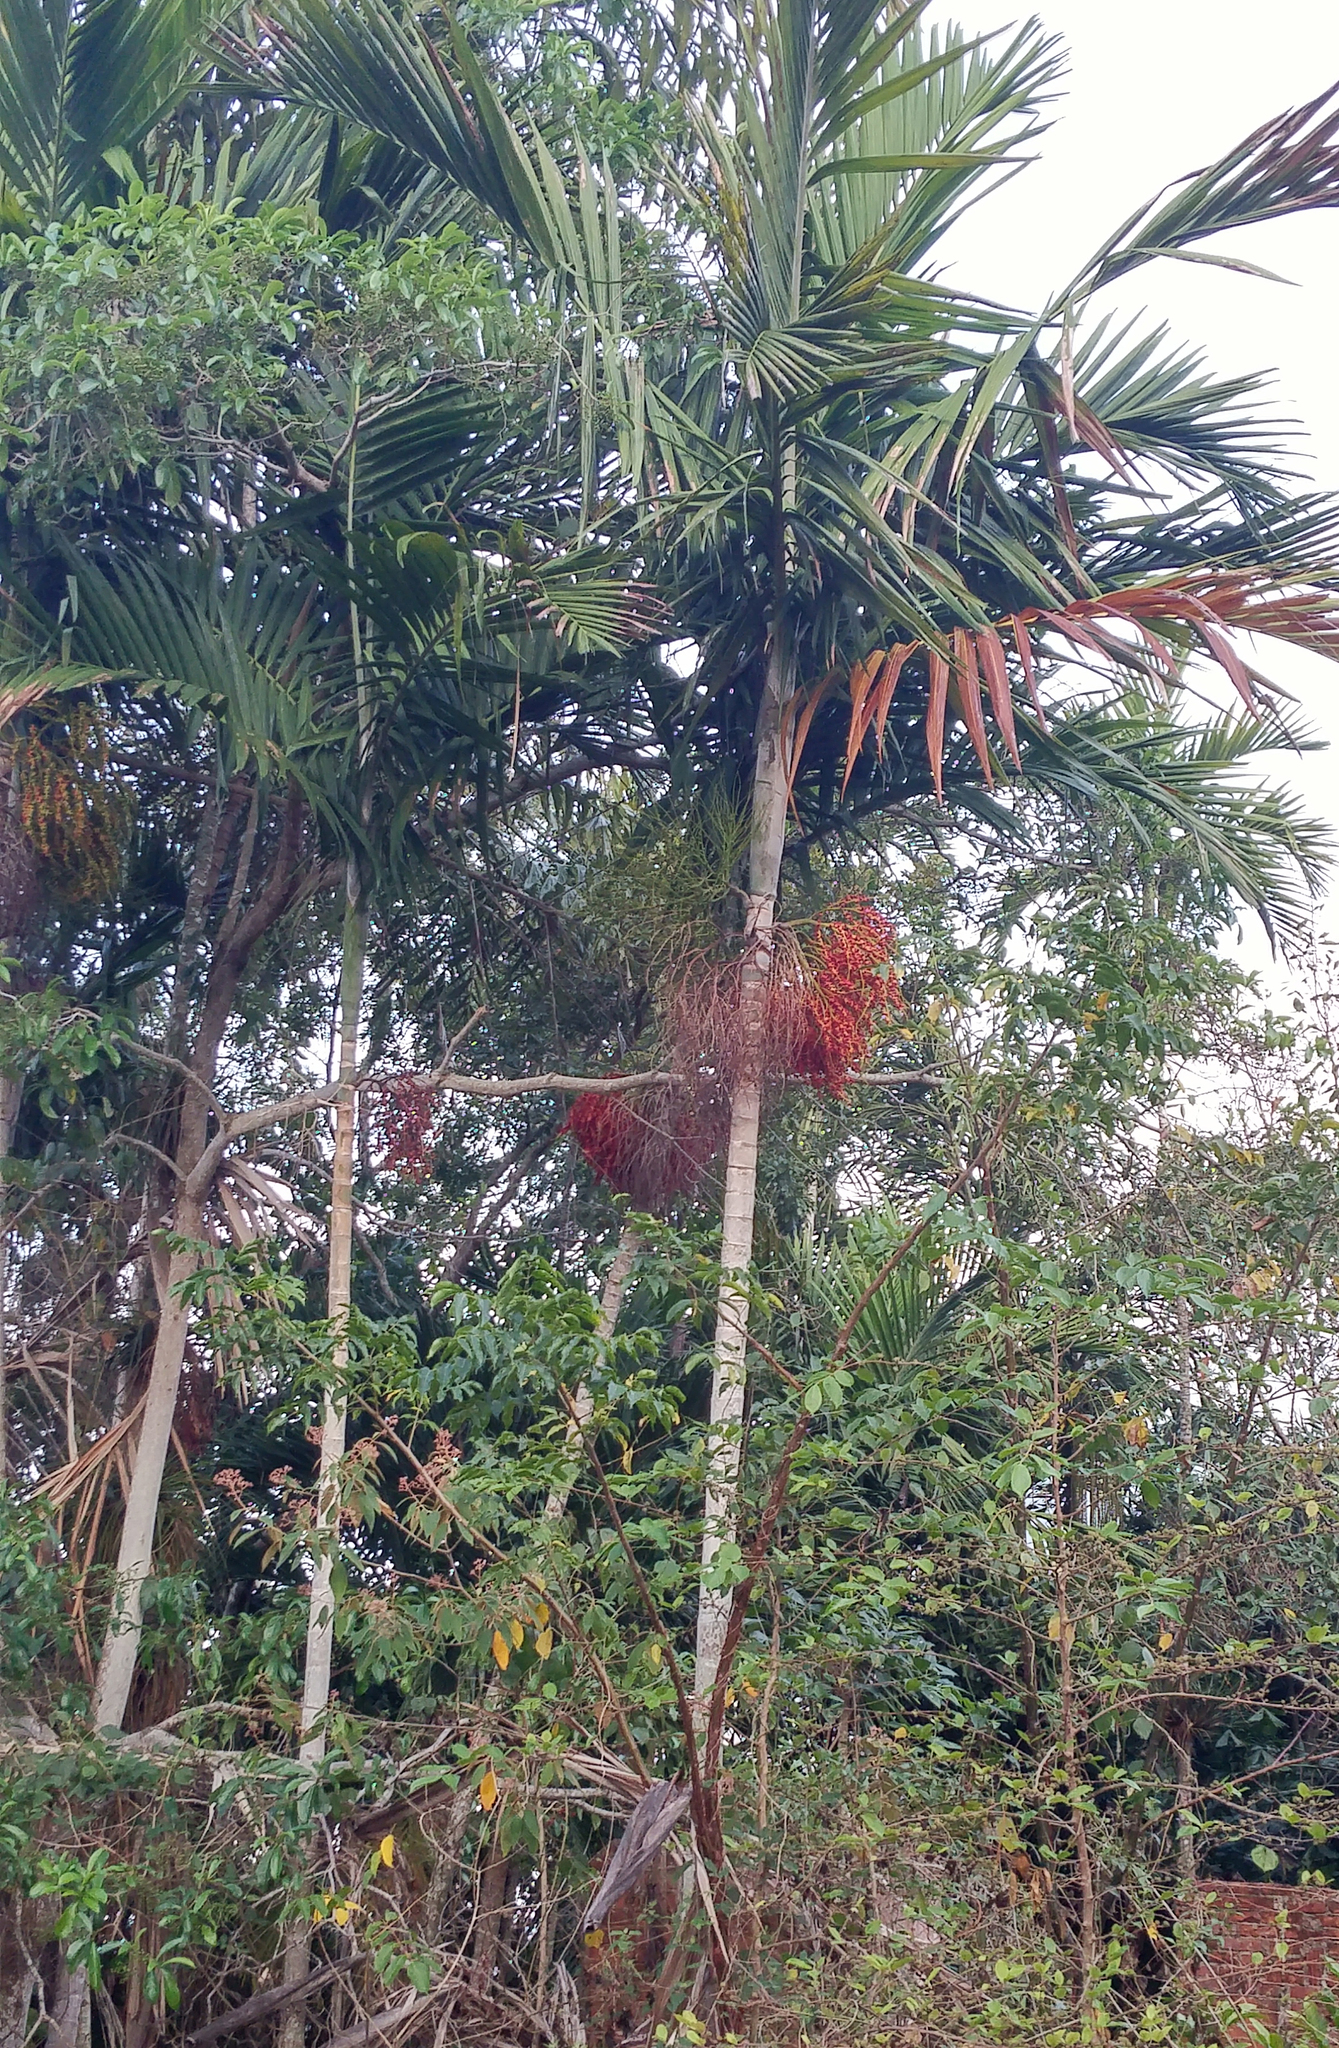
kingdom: Plantae
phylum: Tracheophyta
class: Liliopsida
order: Arecales
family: Arecaceae
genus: Ptychosperma
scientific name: Ptychosperma elegans
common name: Alexander palm
